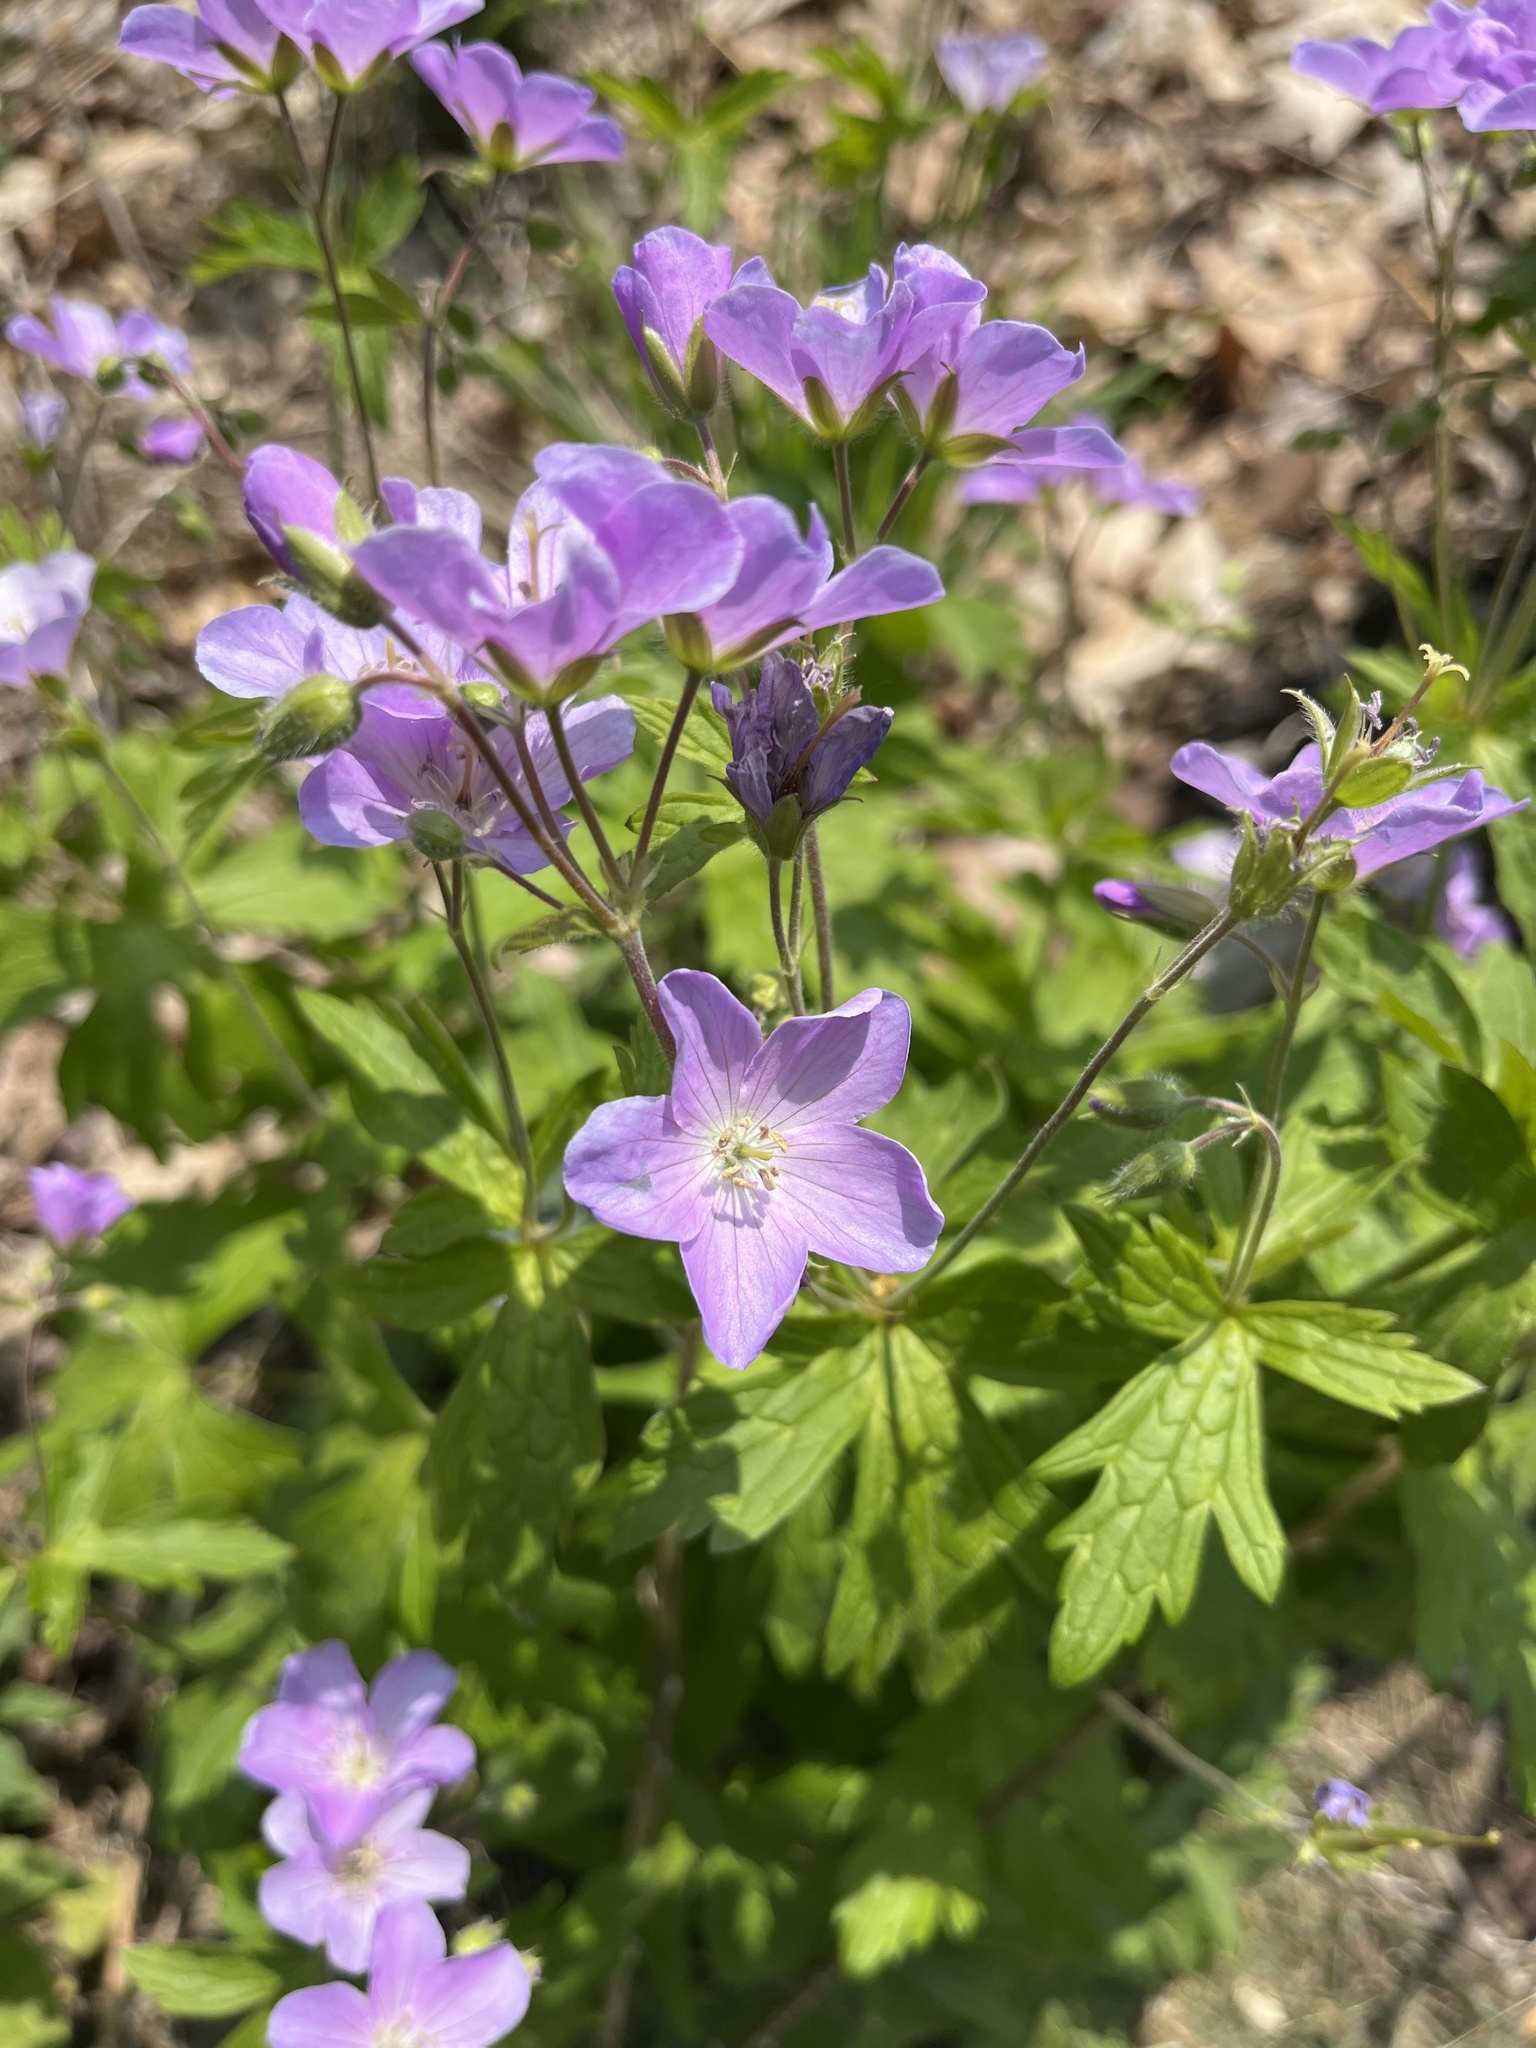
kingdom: Plantae
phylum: Tracheophyta
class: Magnoliopsida
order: Geraniales
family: Geraniaceae
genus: Geranium
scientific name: Geranium maculatum
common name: Spotted geranium
